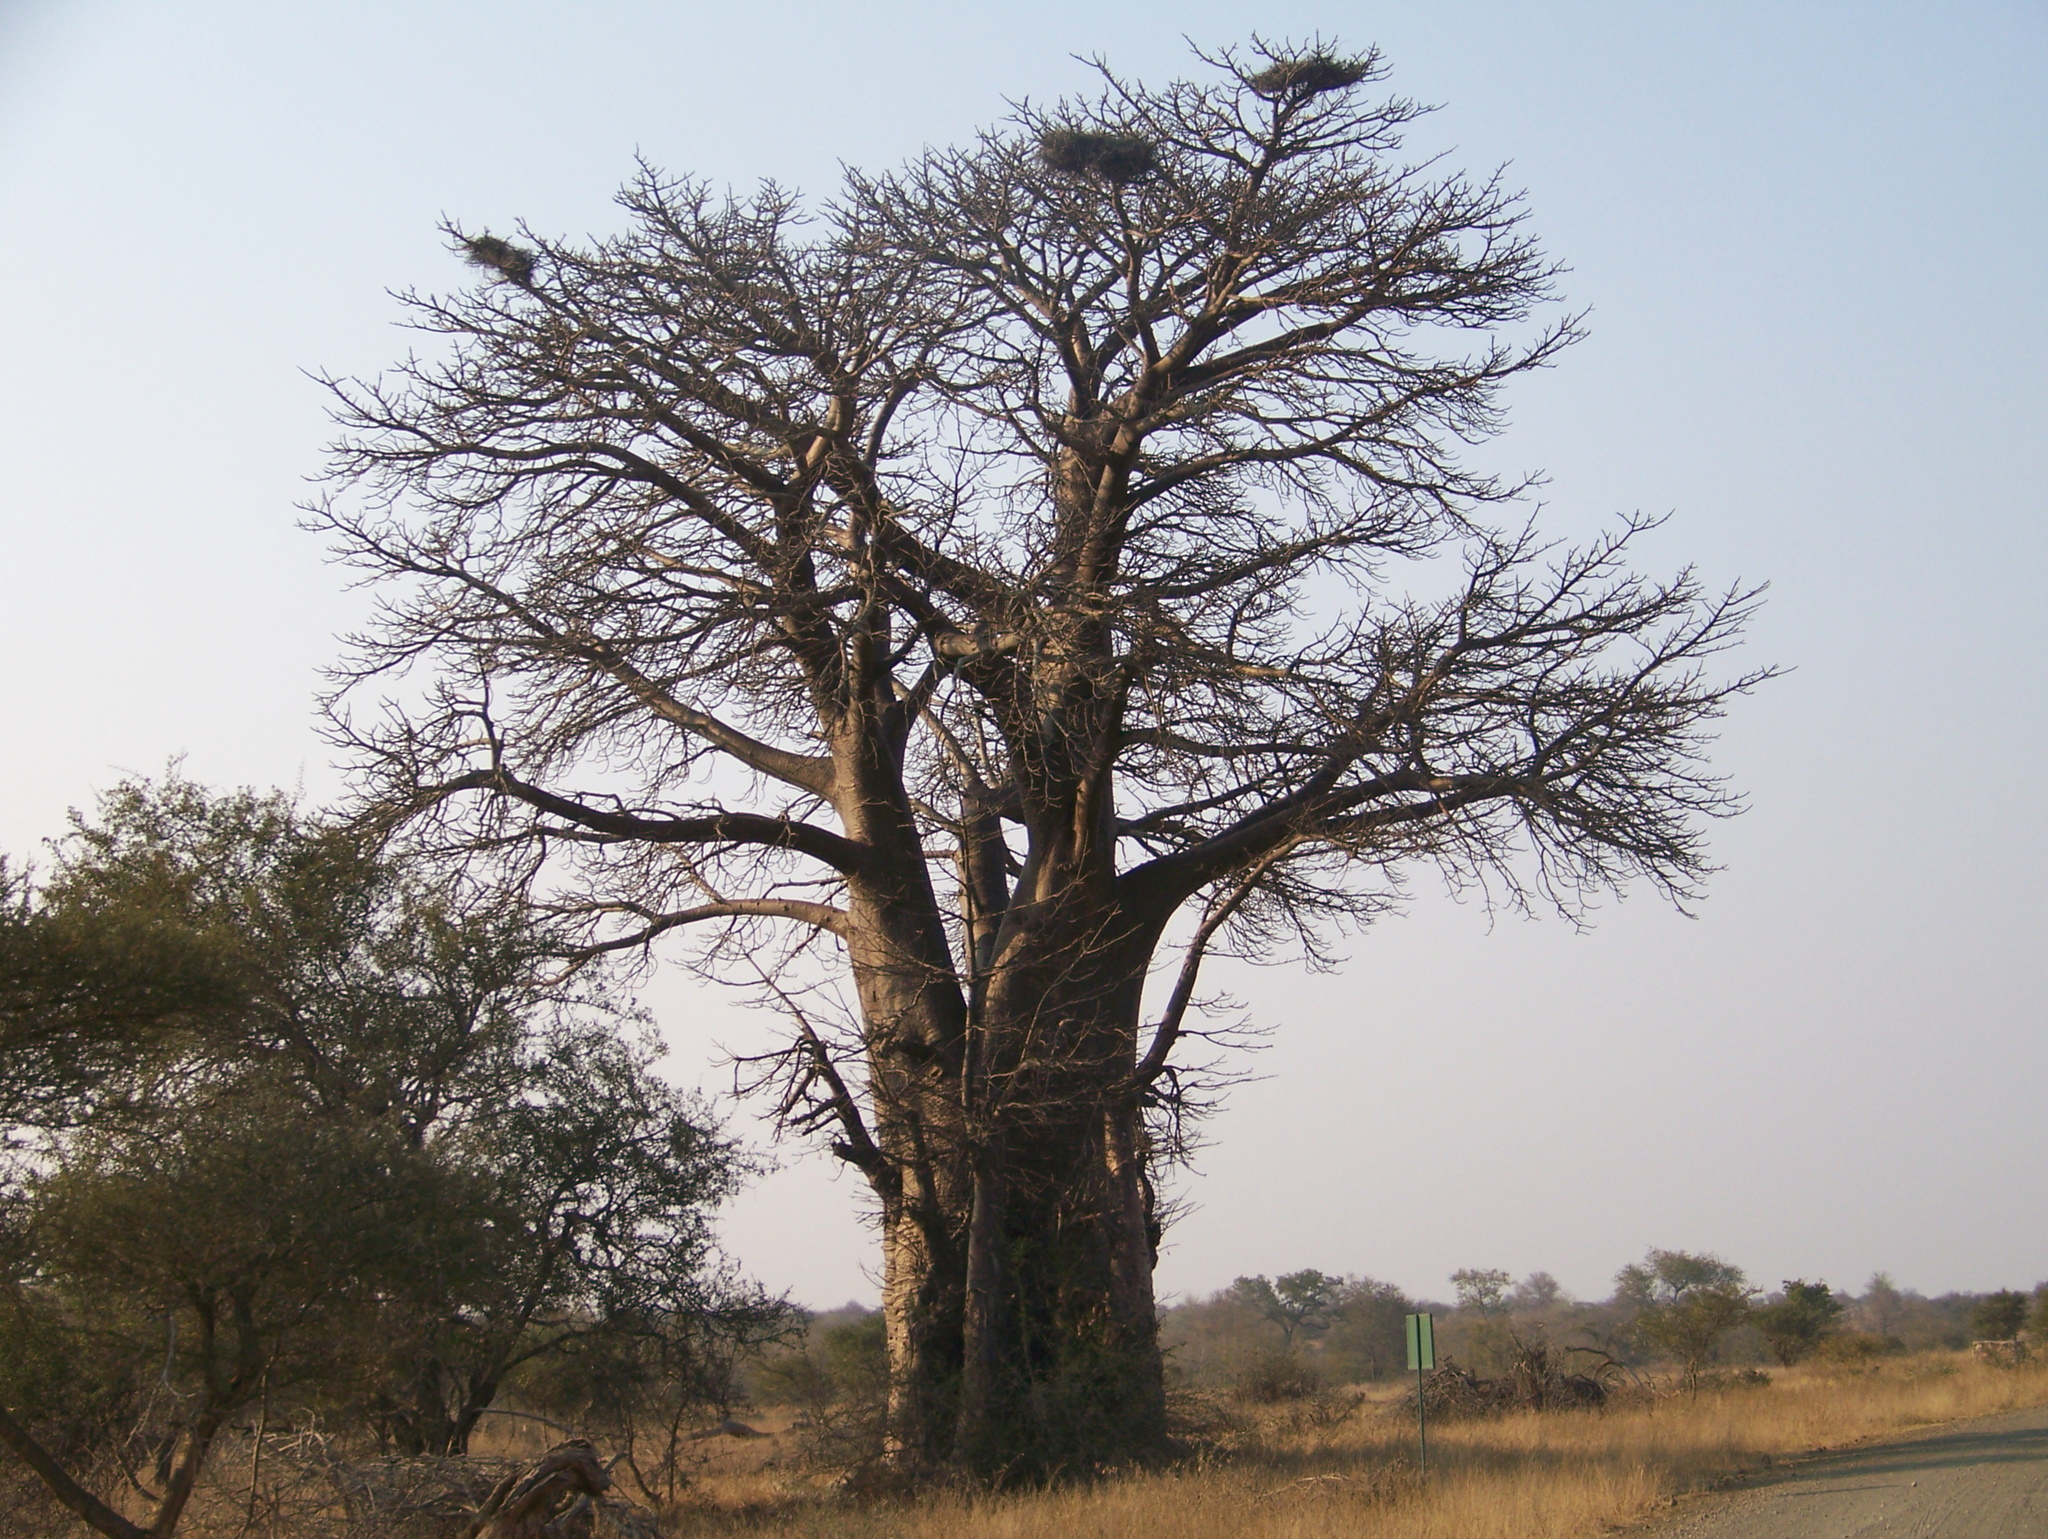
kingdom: Plantae
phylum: Tracheophyta
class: Magnoliopsida
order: Malvales
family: Malvaceae
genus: Adansonia
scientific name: Adansonia digitata
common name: Dead-rat-tree
